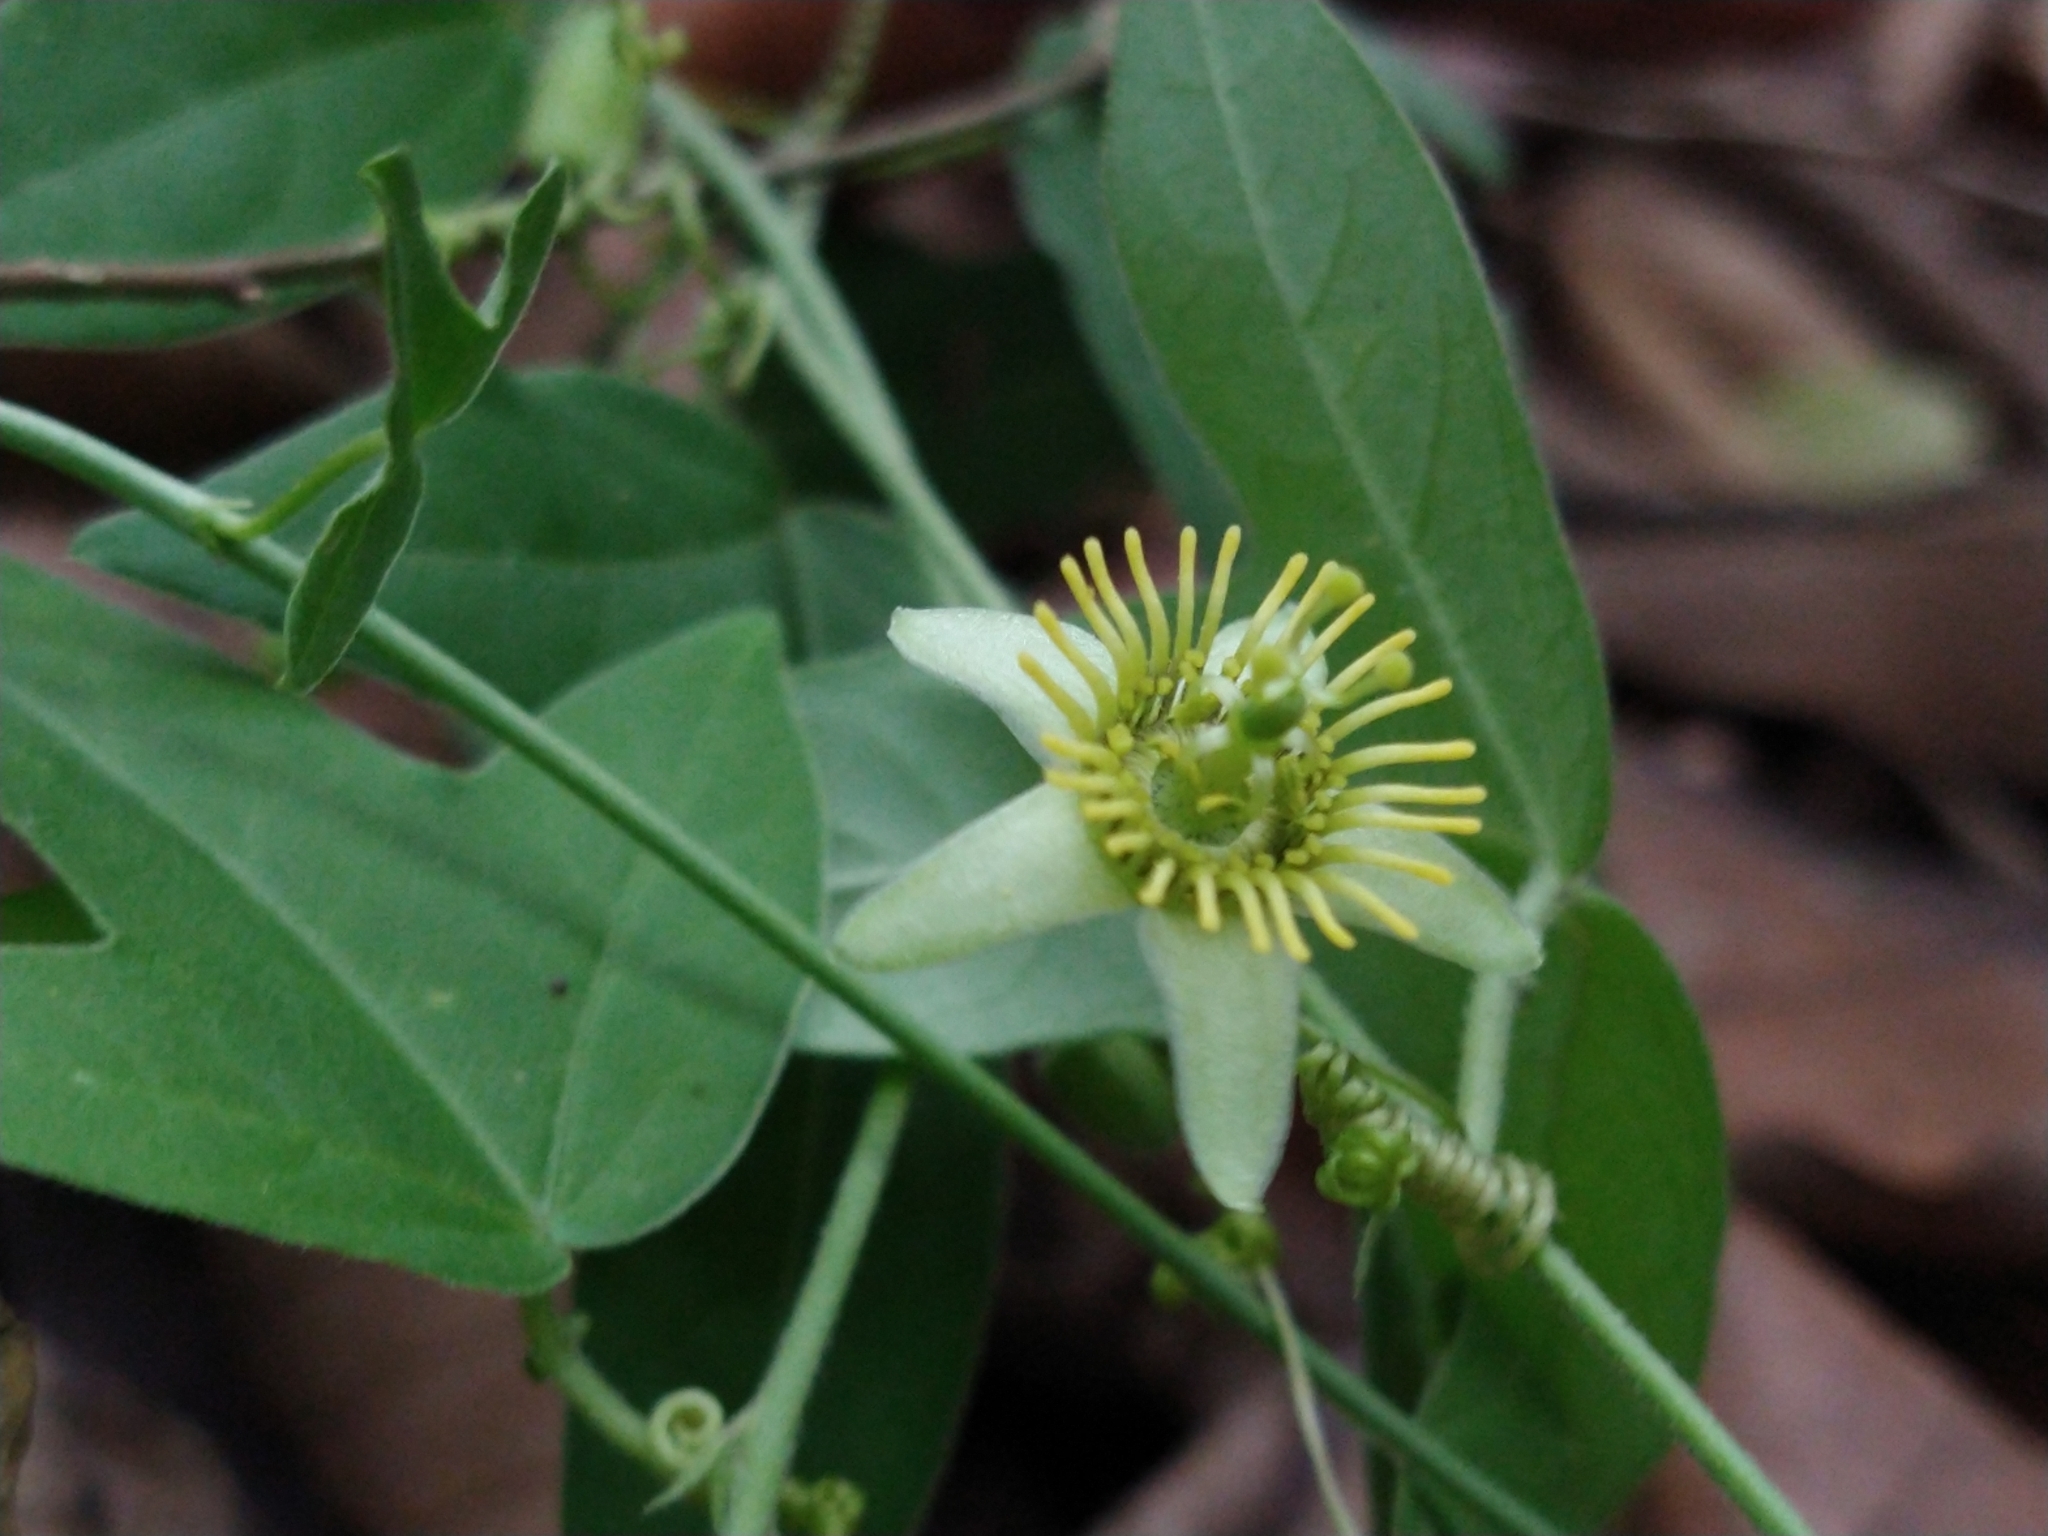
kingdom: Plantae
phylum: Tracheophyta
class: Magnoliopsida
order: Malpighiales
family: Passifloraceae
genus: Passiflora
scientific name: Passiflora suberosa
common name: Wild passionfruit
